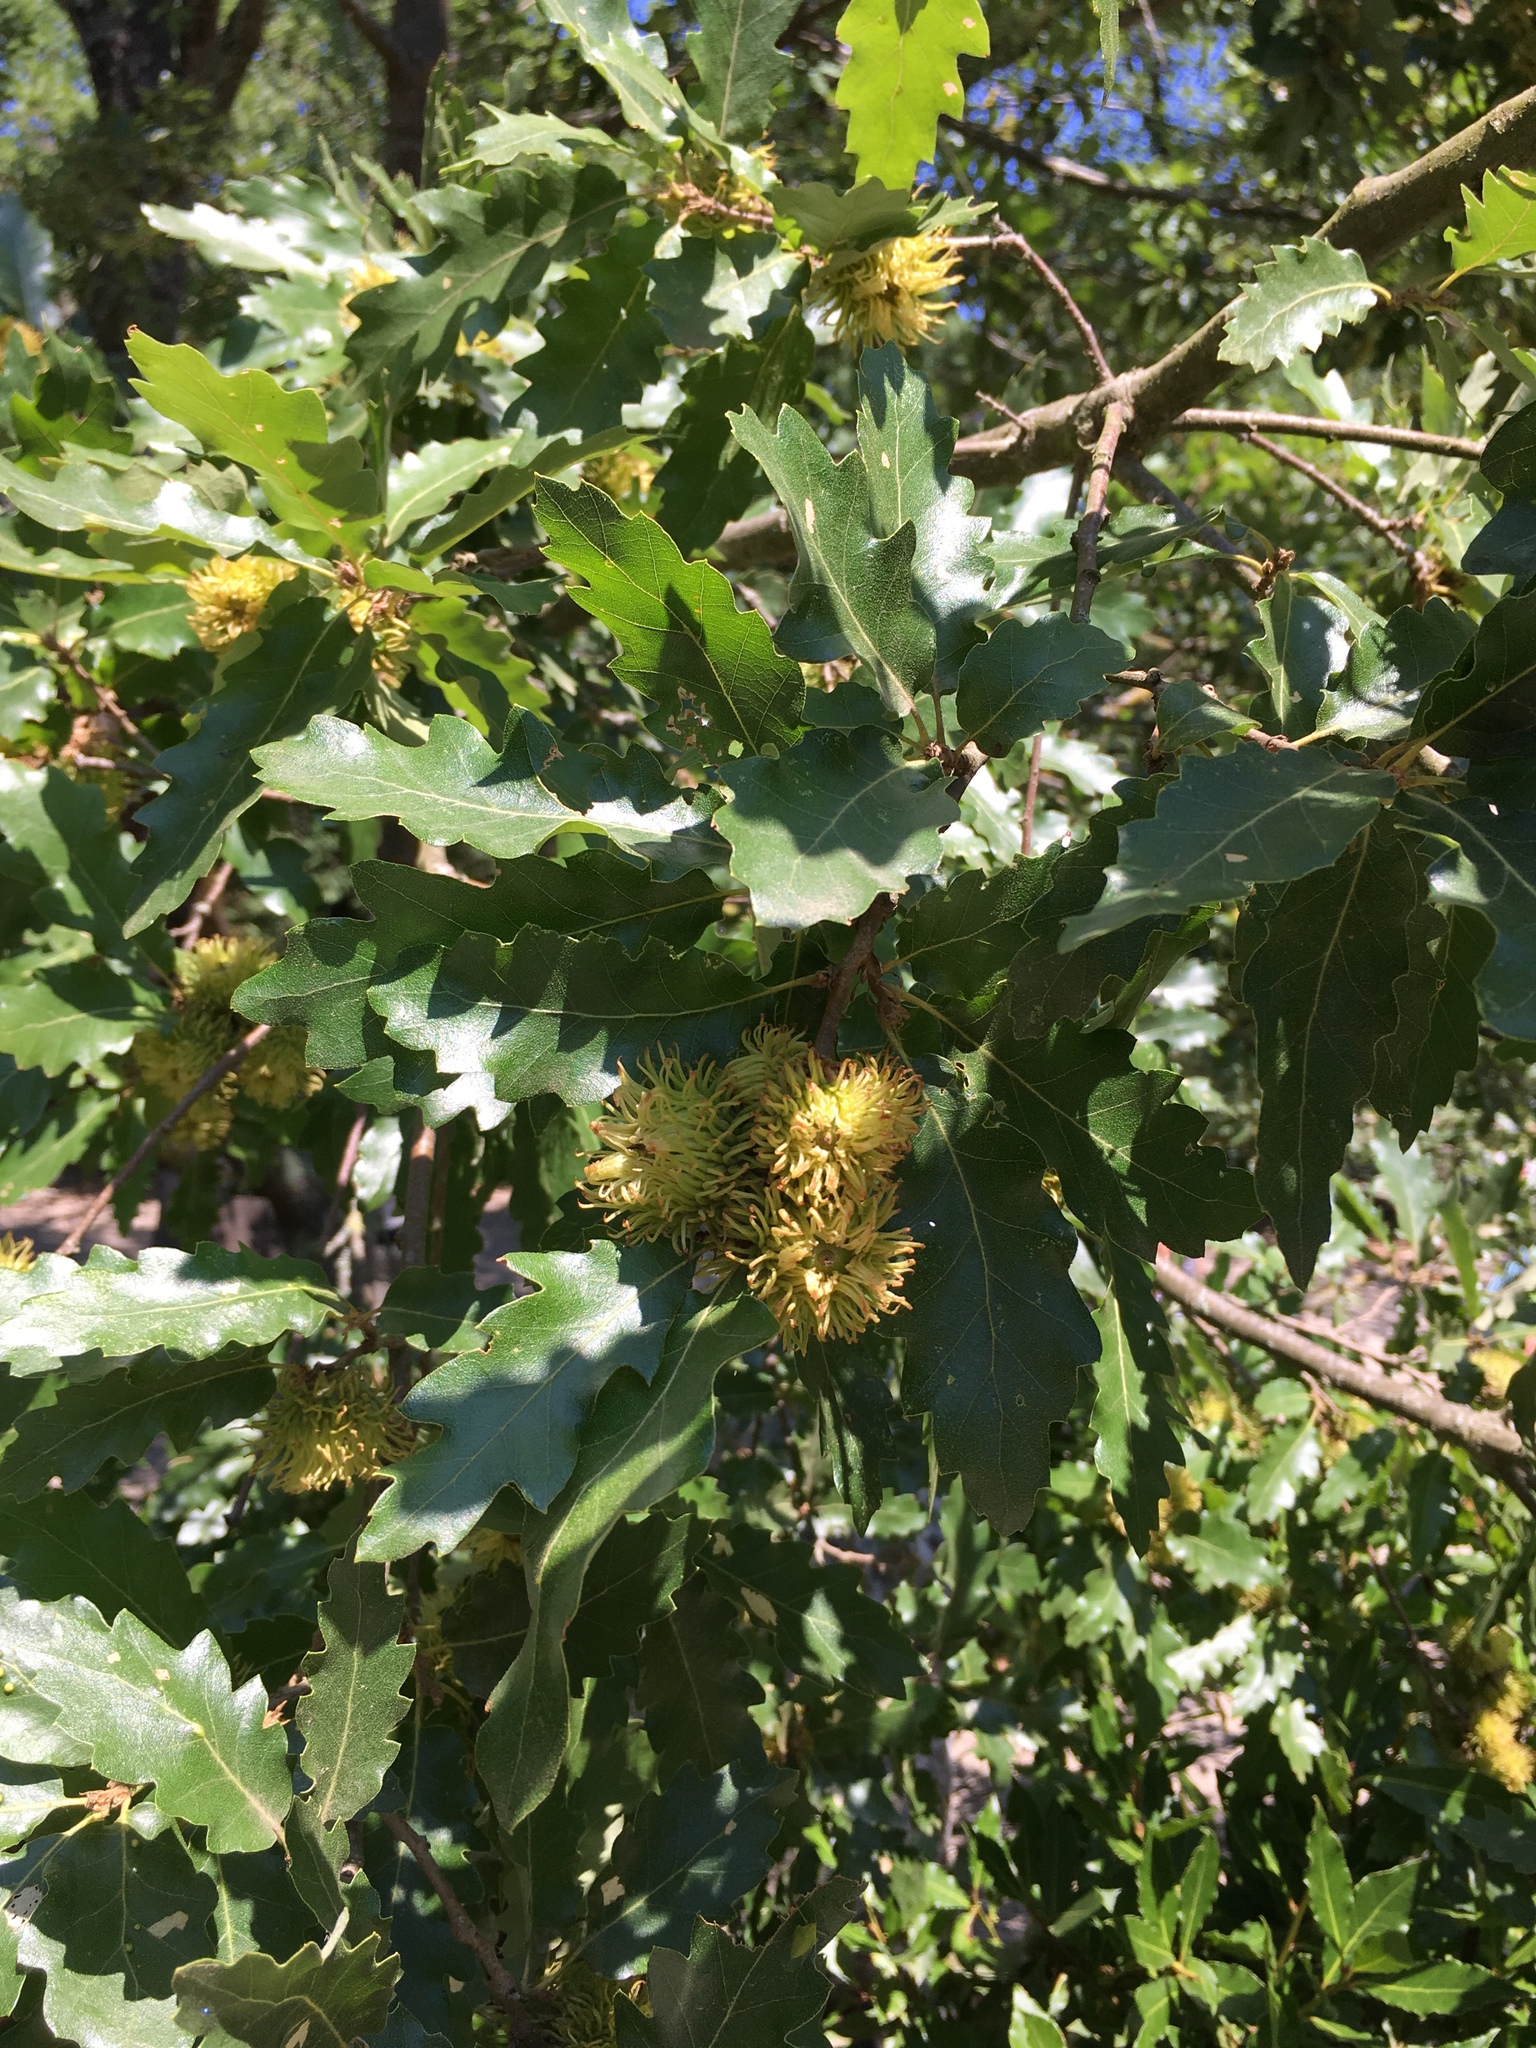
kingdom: Plantae
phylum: Tracheophyta
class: Magnoliopsida
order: Fagales
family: Fagaceae
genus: Quercus
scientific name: Quercus cerris
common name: Turkey oak
